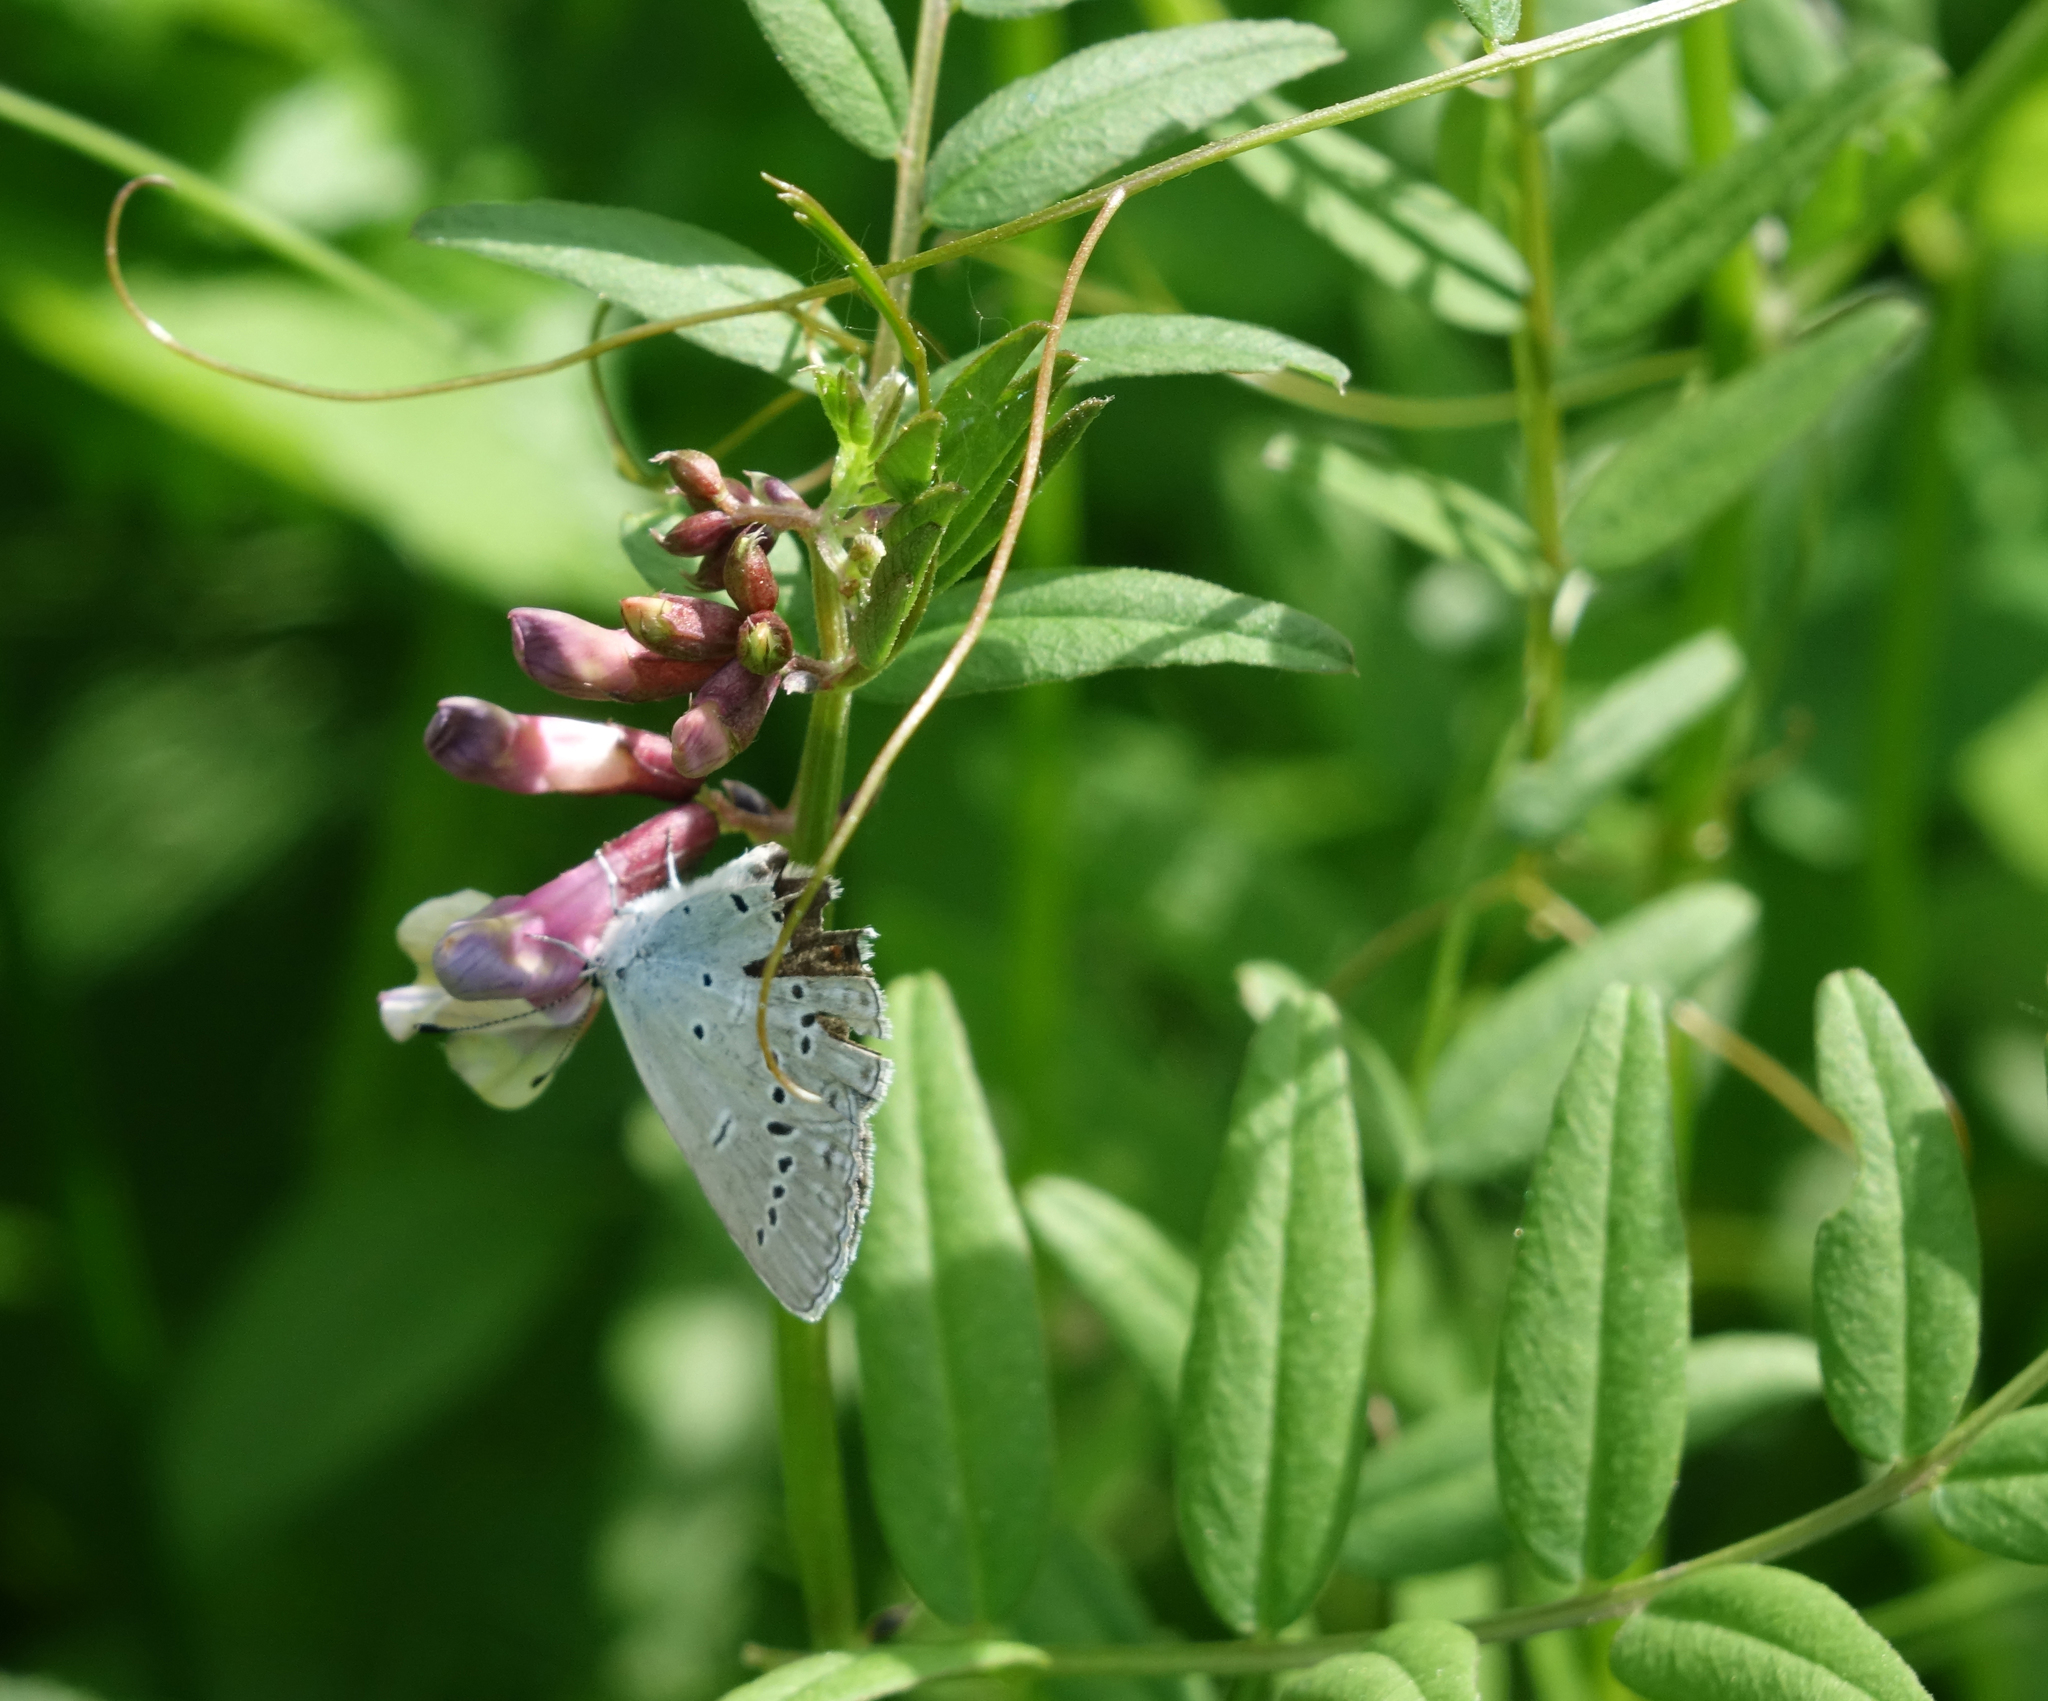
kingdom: Plantae
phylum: Tracheophyta
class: Magnoliopsida
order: Fabales
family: Fabaceae
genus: Vicia
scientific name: Vicia sepium
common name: Bush vetch
